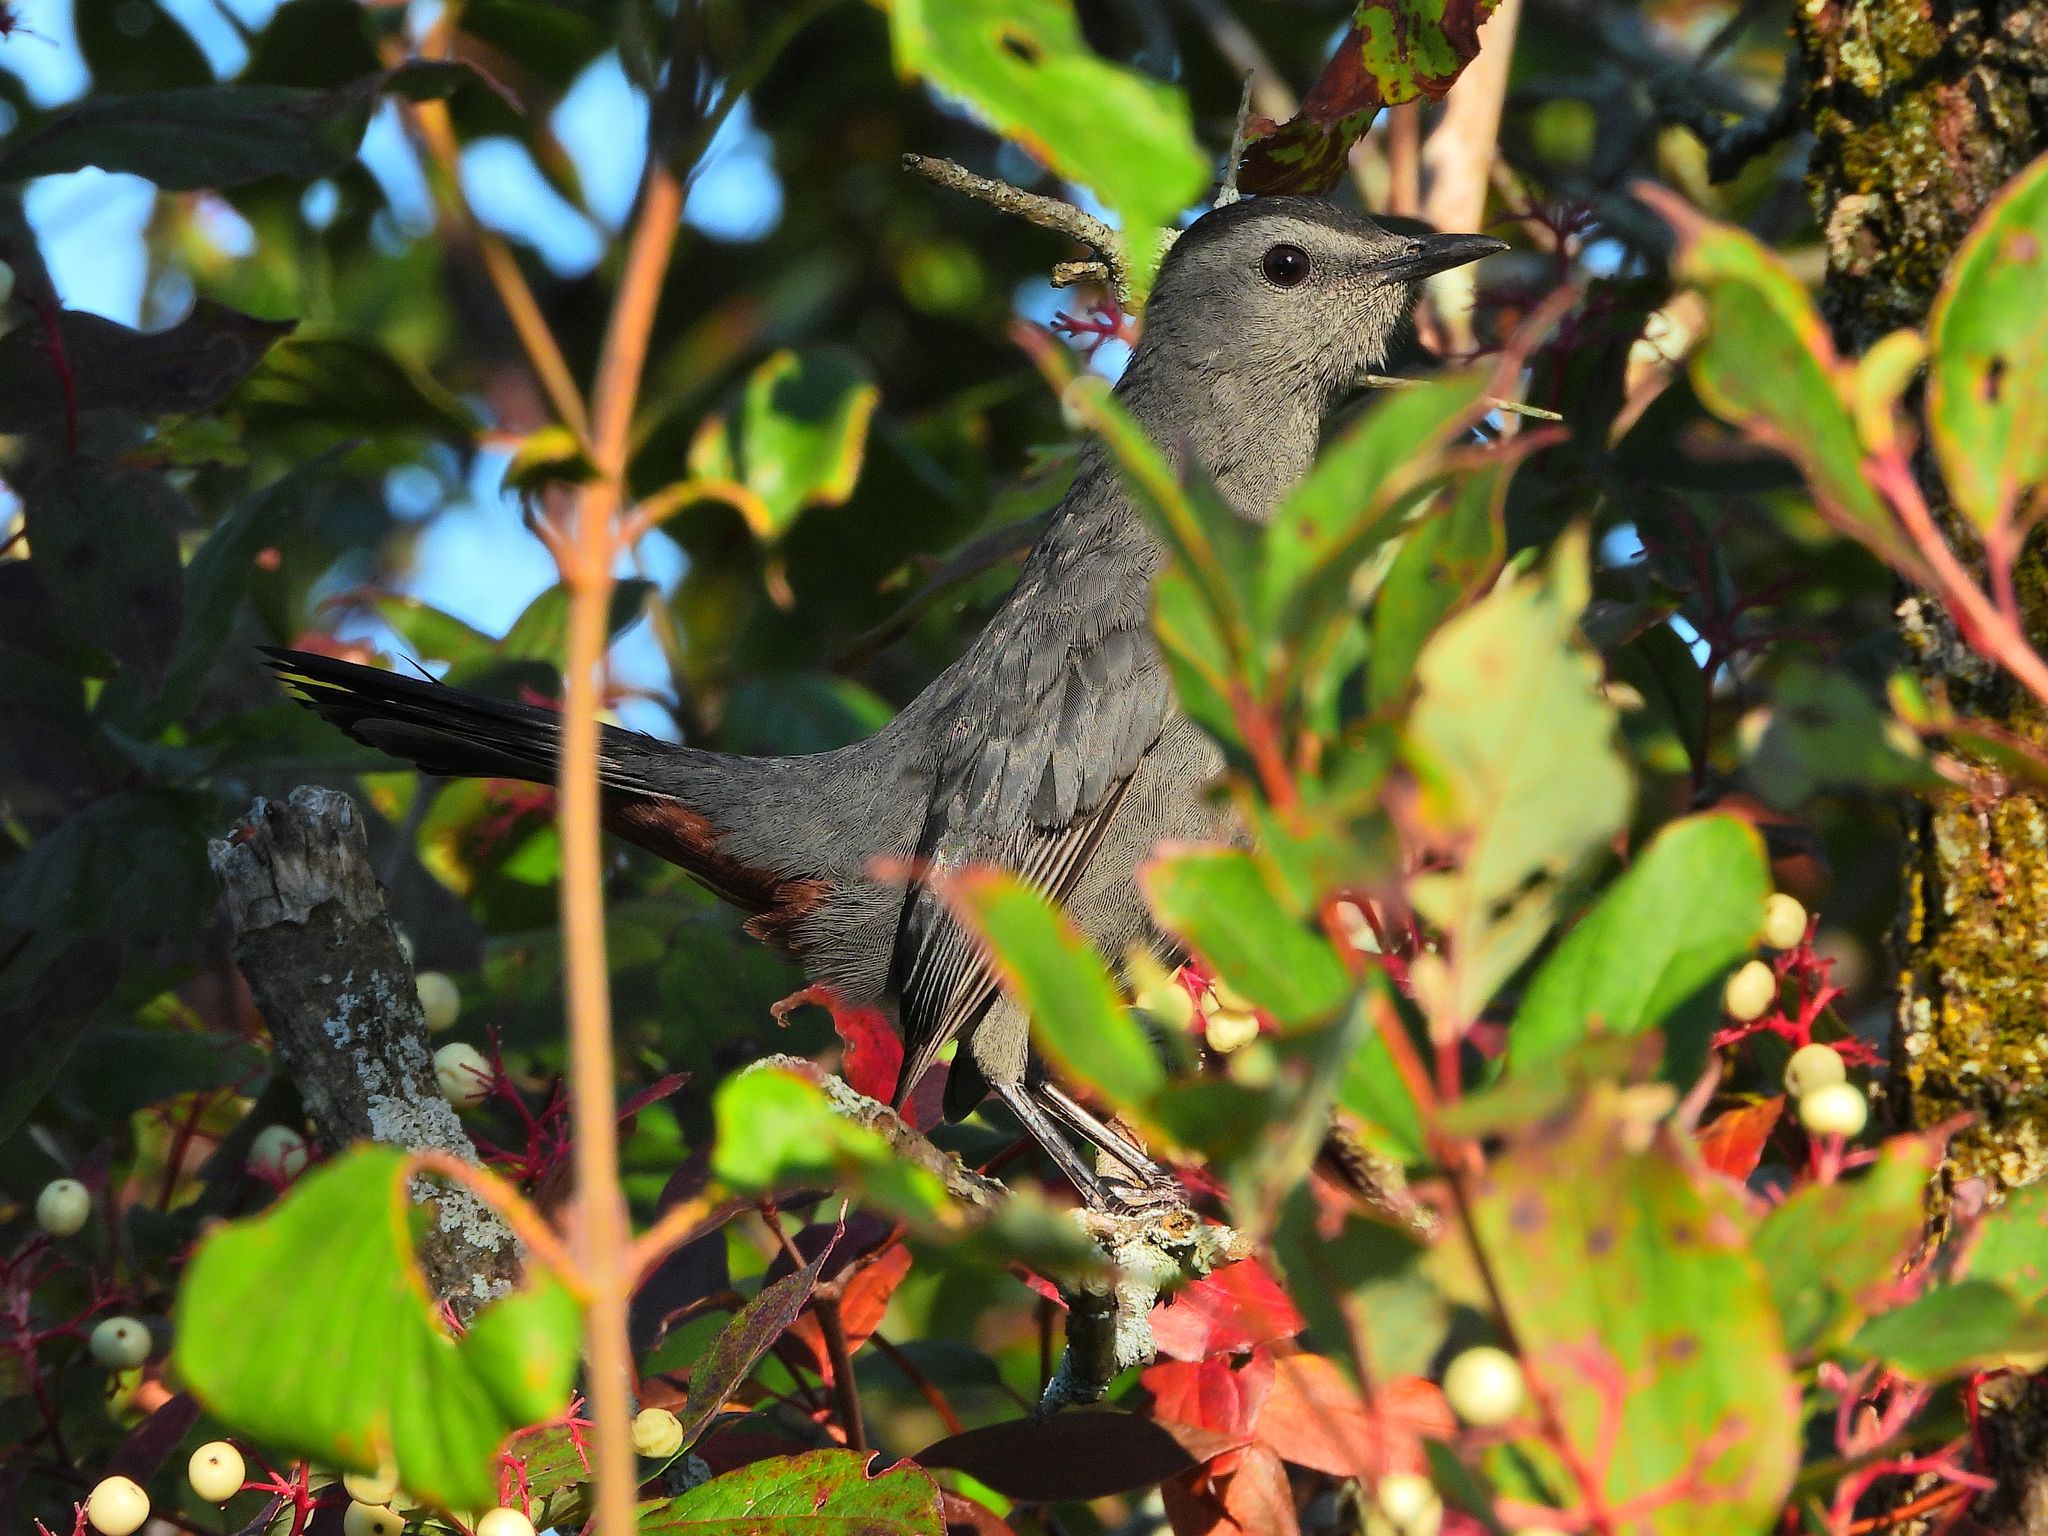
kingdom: Animalia
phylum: Chordata
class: Aves
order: Passeriformes
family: Mimidae
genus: Dumetella
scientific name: Dumetella carolinensis
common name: Gray catbird
